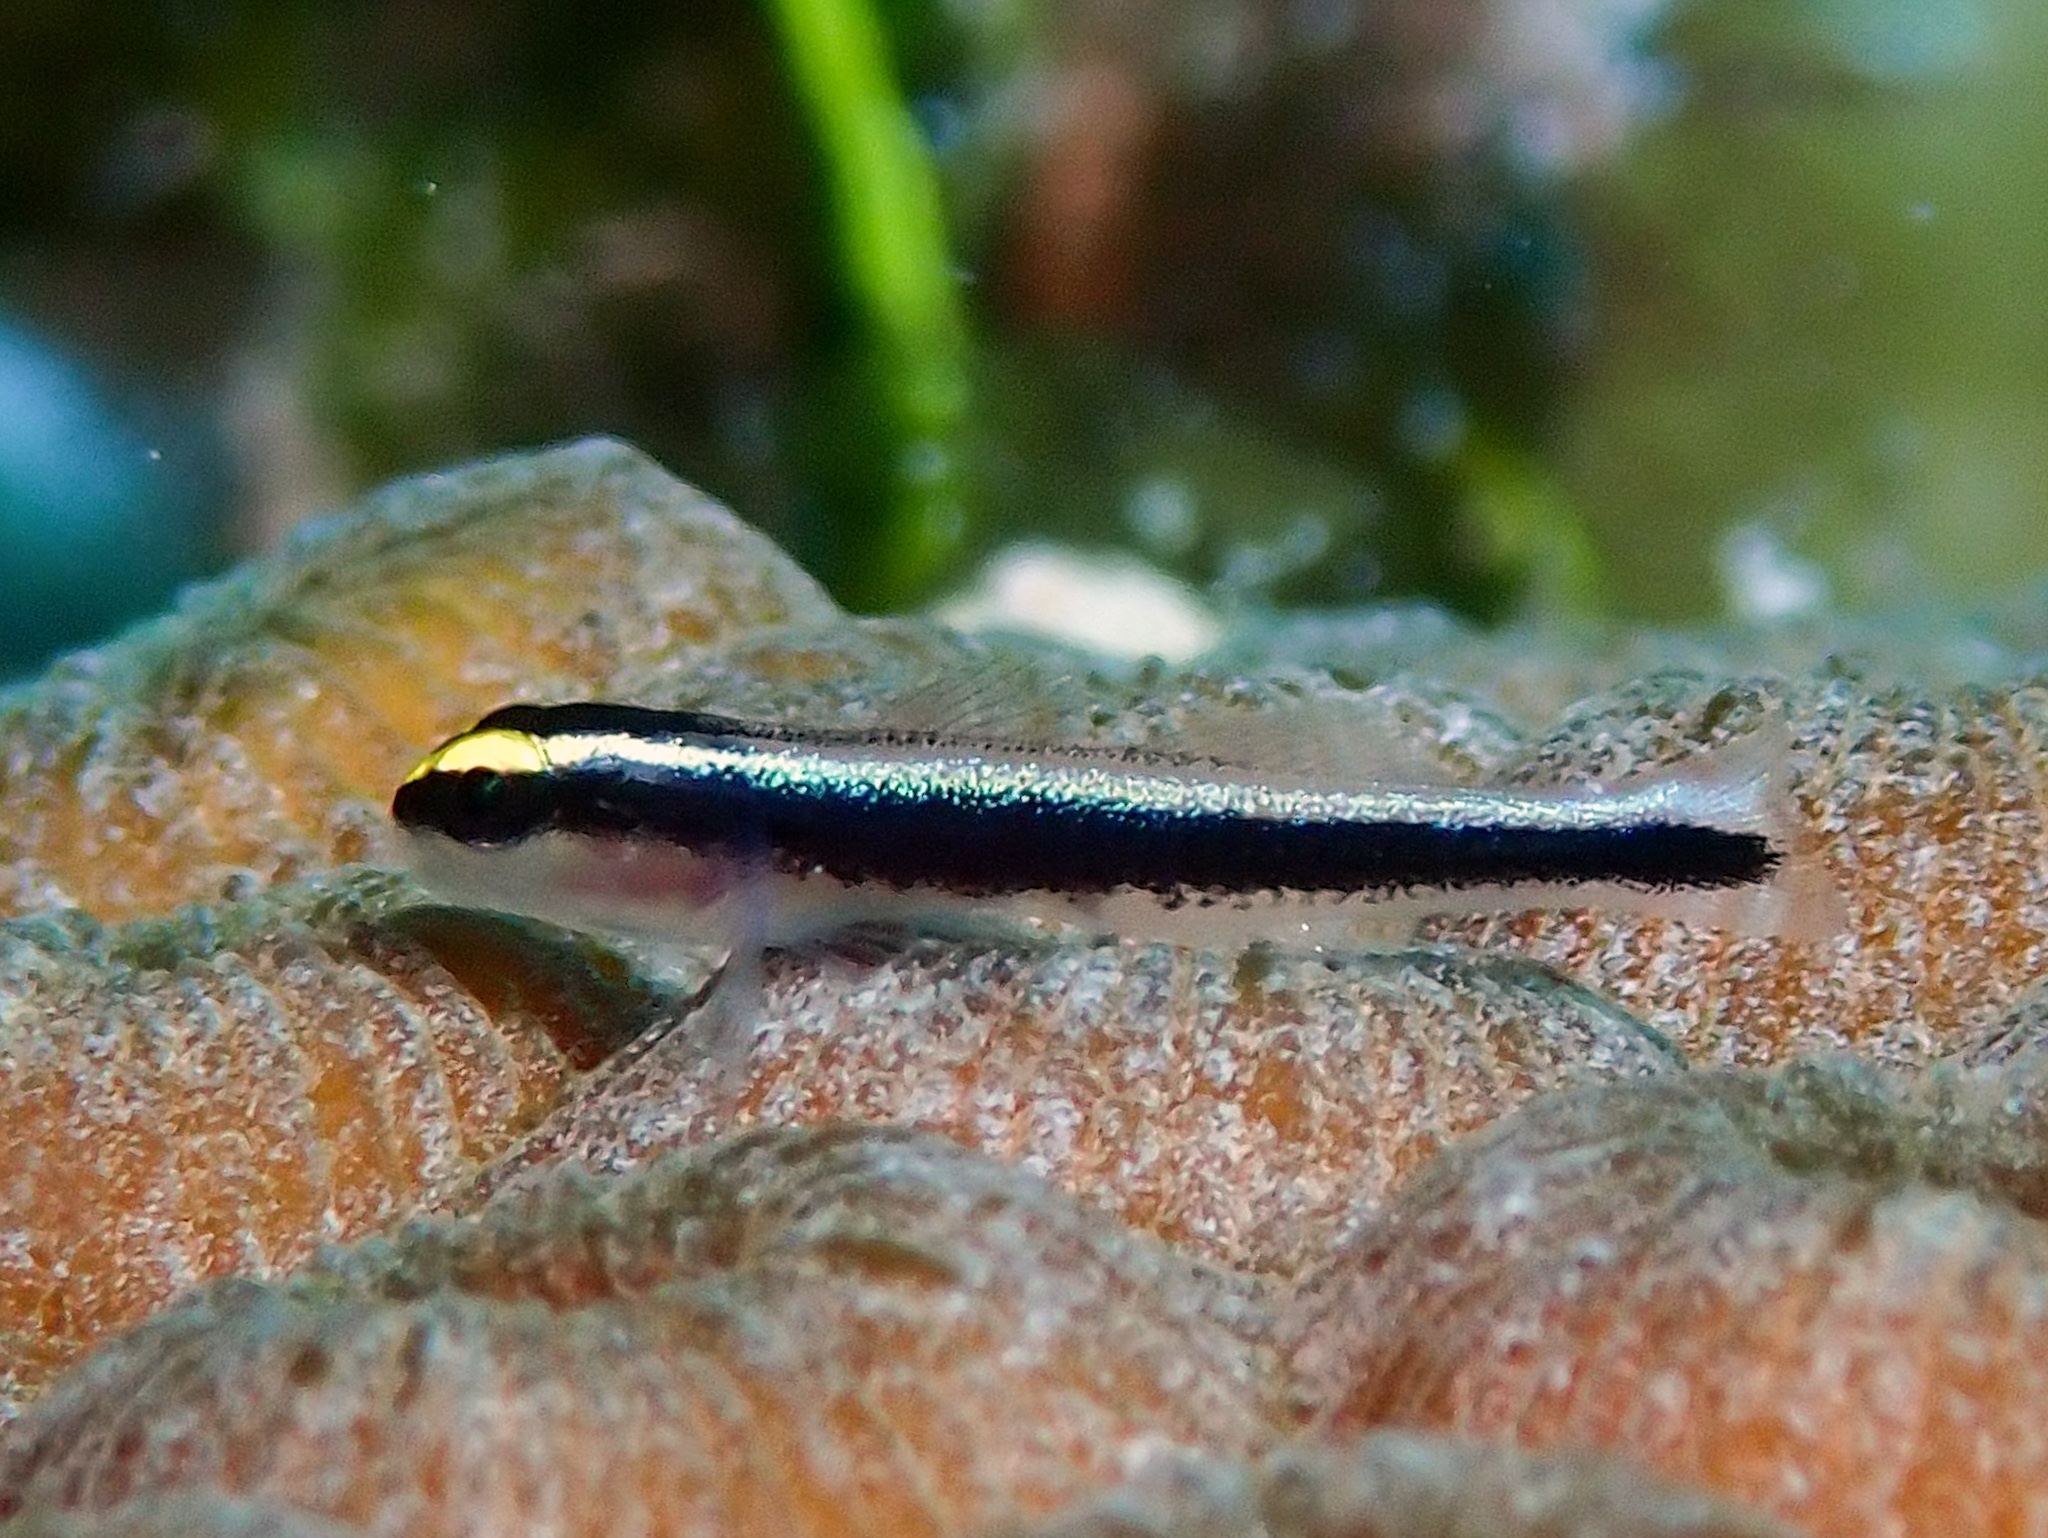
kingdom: Animalia
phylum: Chordata
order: Perciformes
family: Gobiidae
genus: Elacatinus
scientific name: Elacatinus cayman
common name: Cayman cleaner goby
